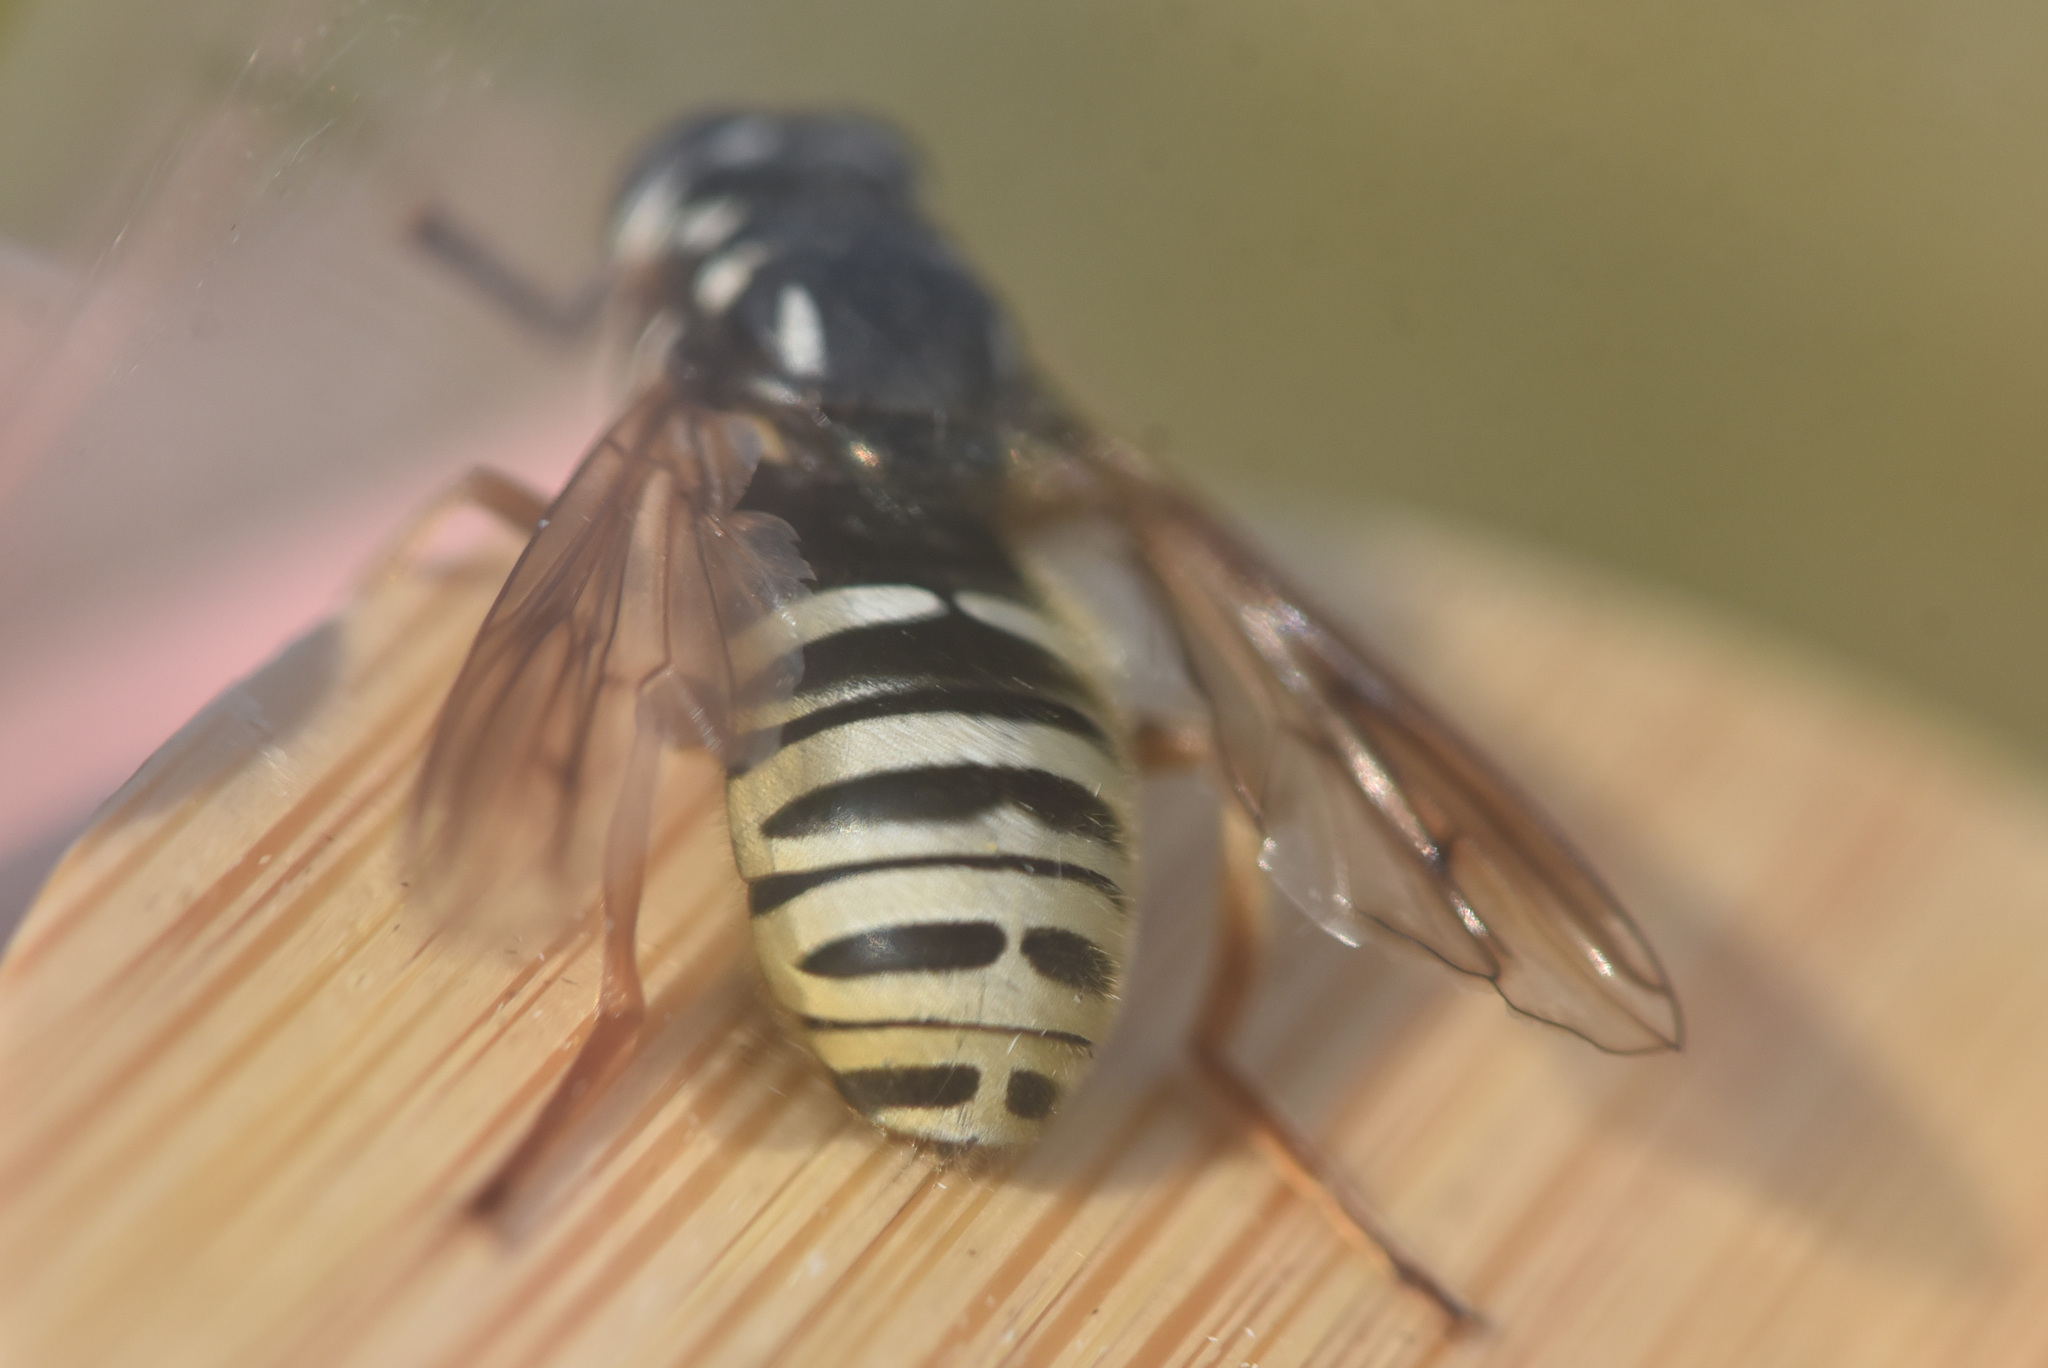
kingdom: Animalia
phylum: Arthropoda
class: Insecta
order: Diptera
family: Syrphidae
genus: Temnostoma
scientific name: Temnostoma excentricum
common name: Black-spotted falsehorn
